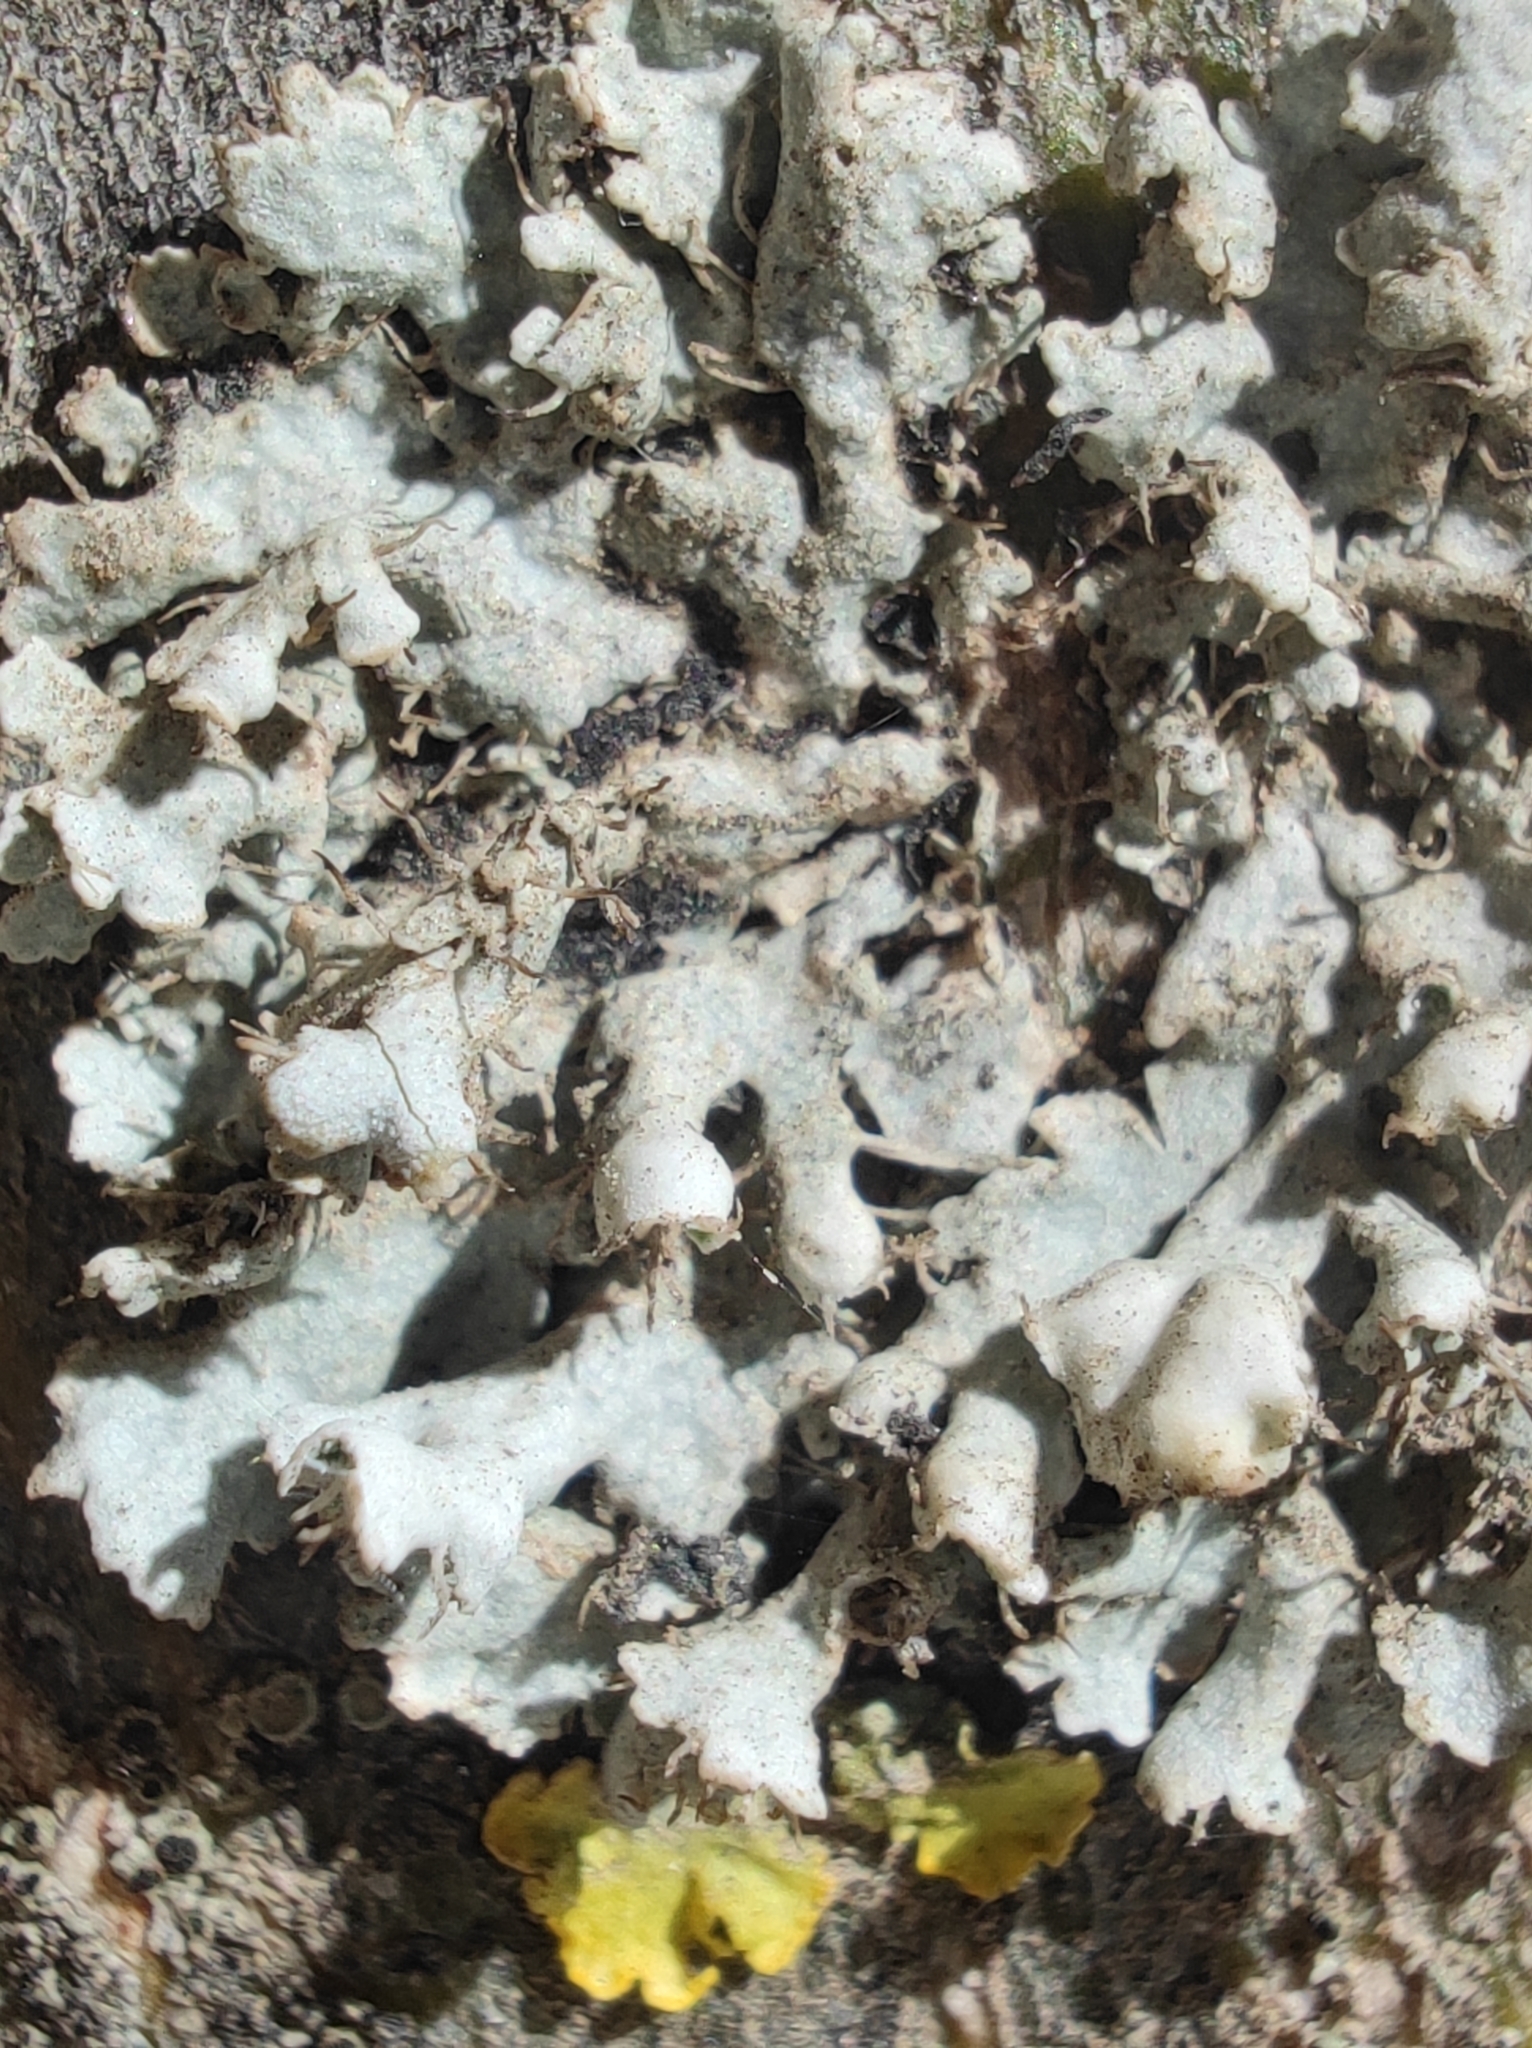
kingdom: Fungi
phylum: Ascomycota
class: Lecanoromycetes
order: Caliciales
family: Physciaceae
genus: Physcia
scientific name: Physcia adscendens
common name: Hooded rosette lichen
